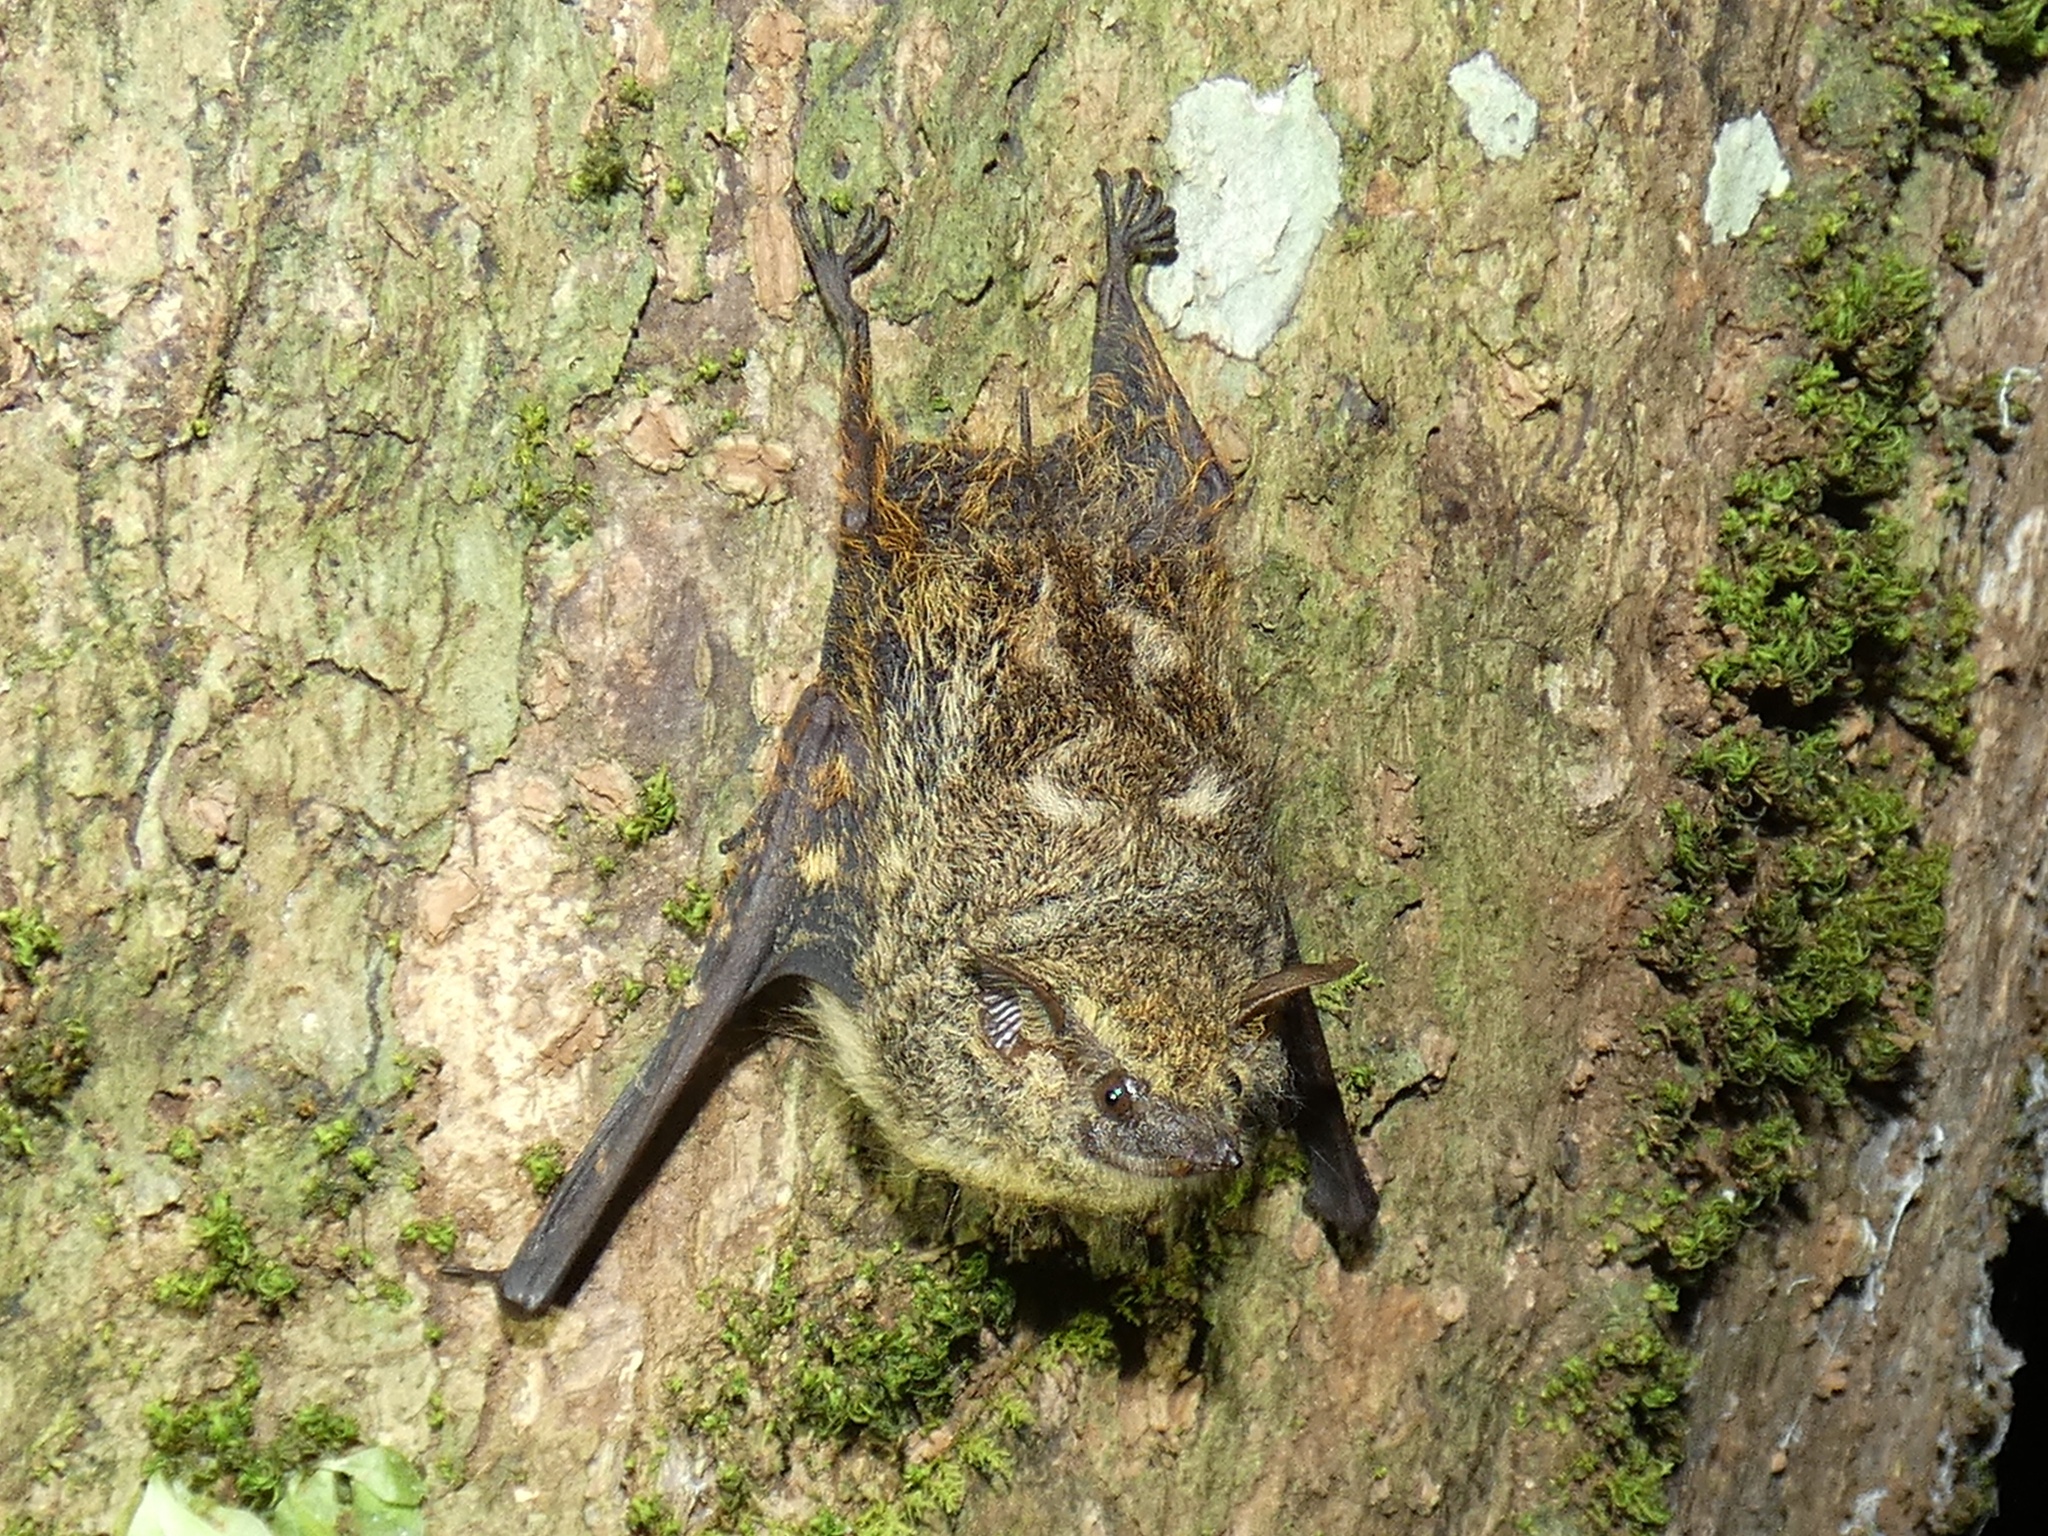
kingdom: Animalia
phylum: Chordata
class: Mammalia
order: Chiroptera
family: Emballonuridae
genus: Rhynchonycteris
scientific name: Rhynchonycteris naso
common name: Proboscis bat
